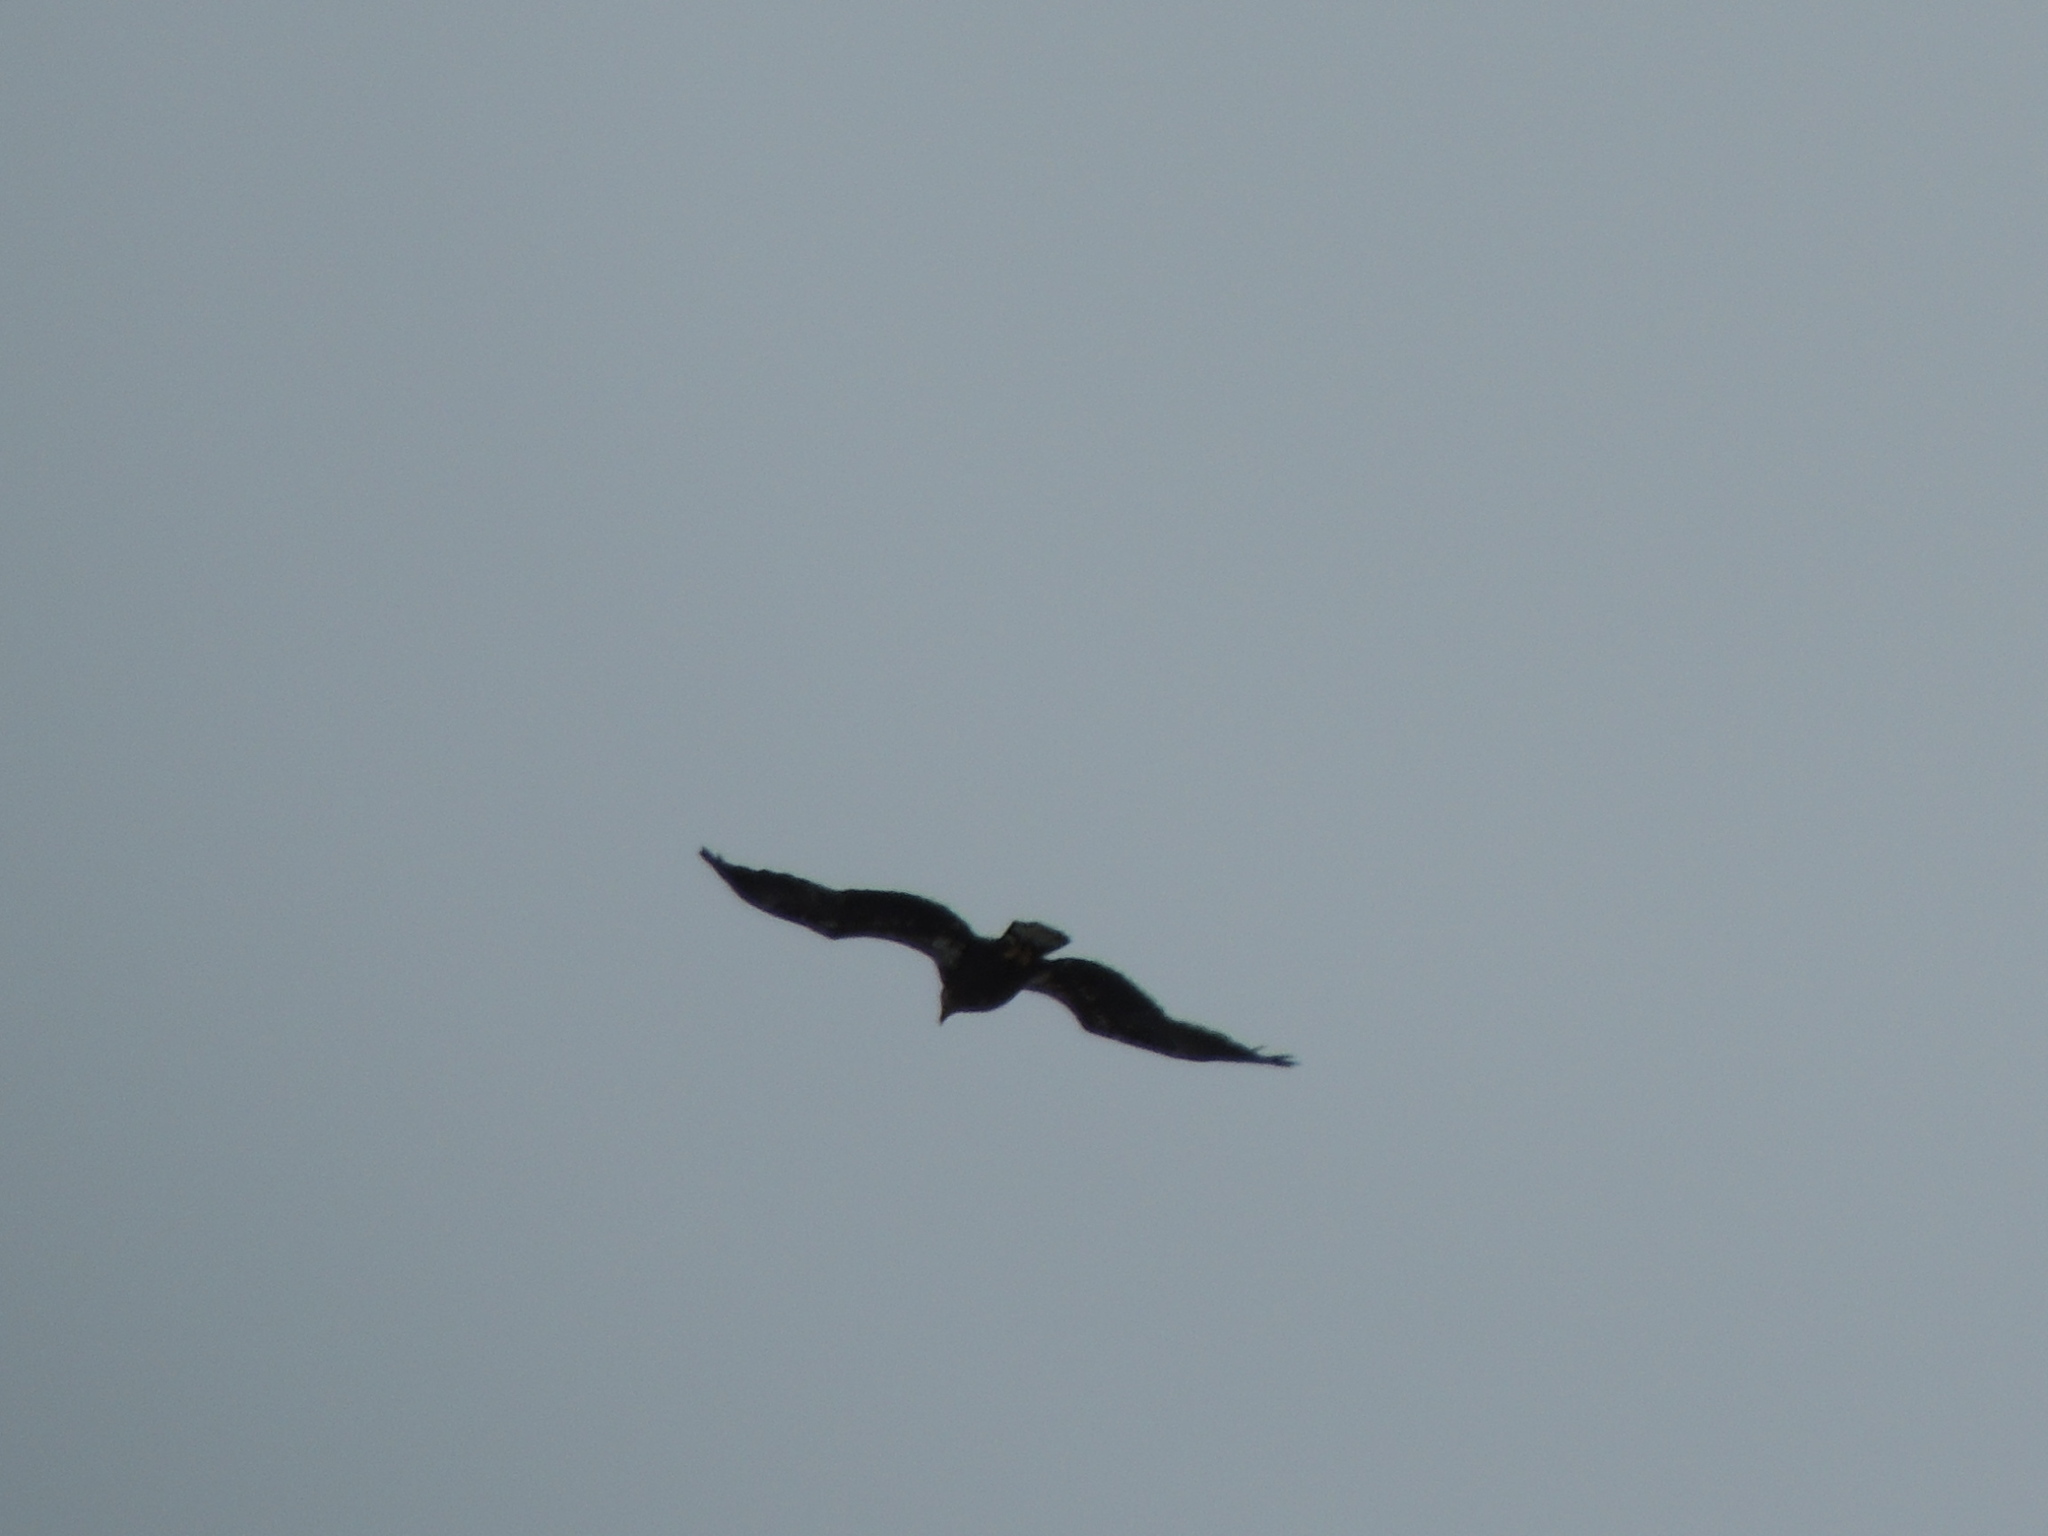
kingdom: Animalia
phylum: Chordata
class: Aves
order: Accipitriformes
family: Accipitridae
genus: Haliaeetus
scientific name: Haliaeetus leucocephalus
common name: Bald eagle
